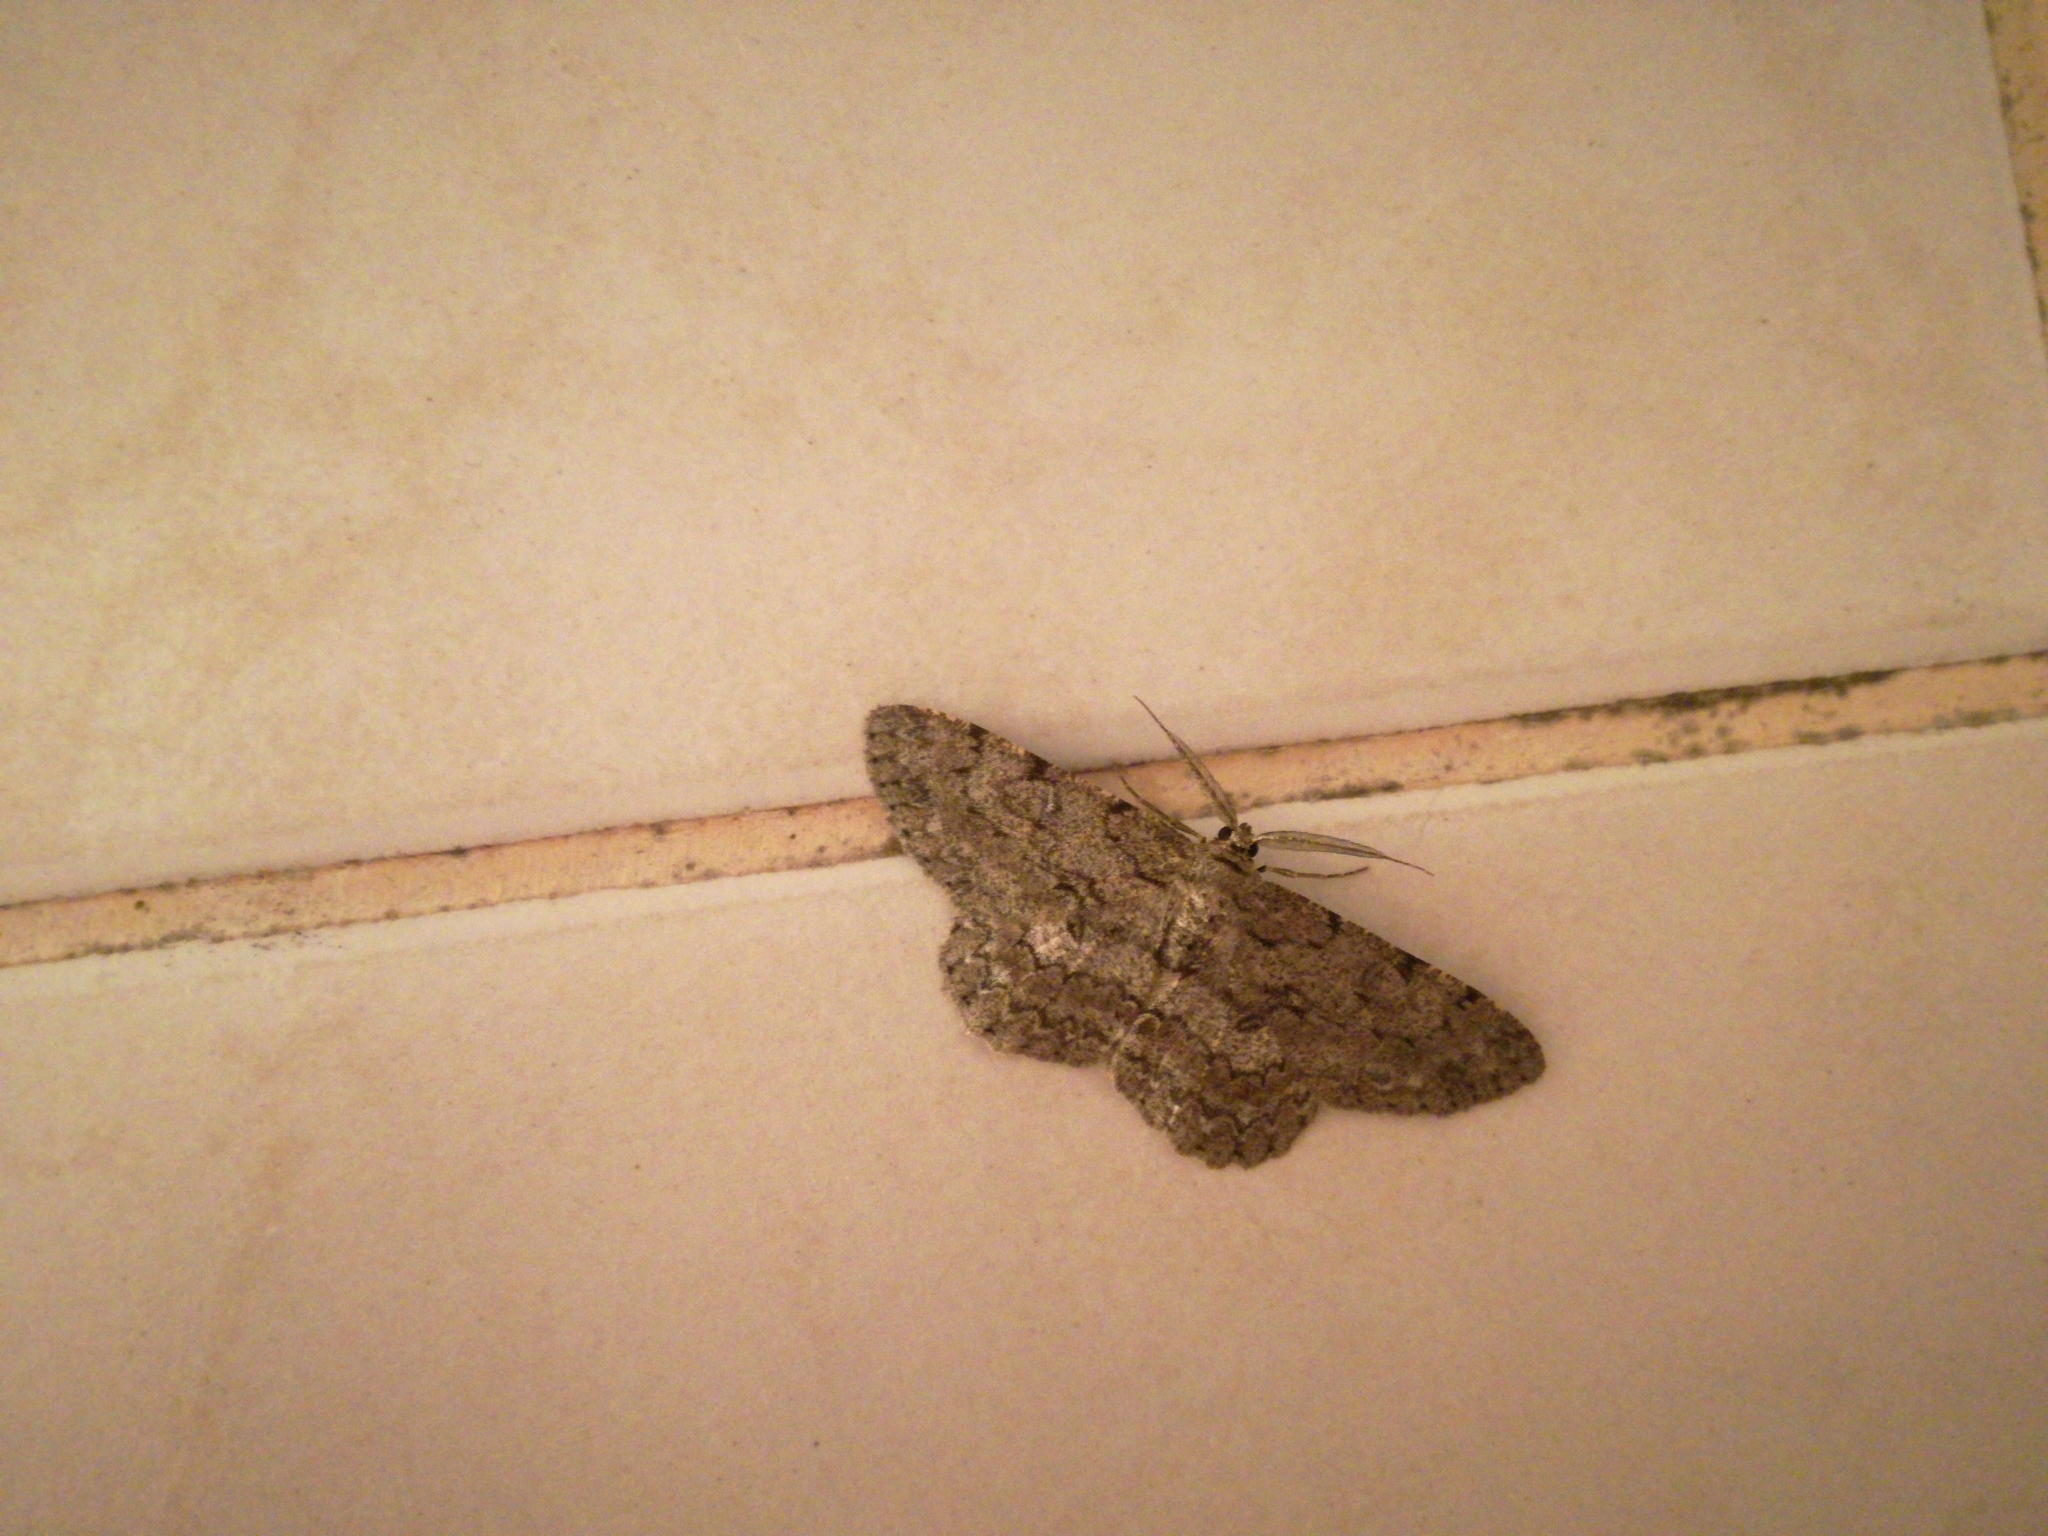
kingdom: Animalia
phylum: Arthropoda
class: Insecta
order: Lepidoptera
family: Geometridae
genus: Hypomecis
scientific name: Hypomecis punctinalis
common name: Pale oak beauty
